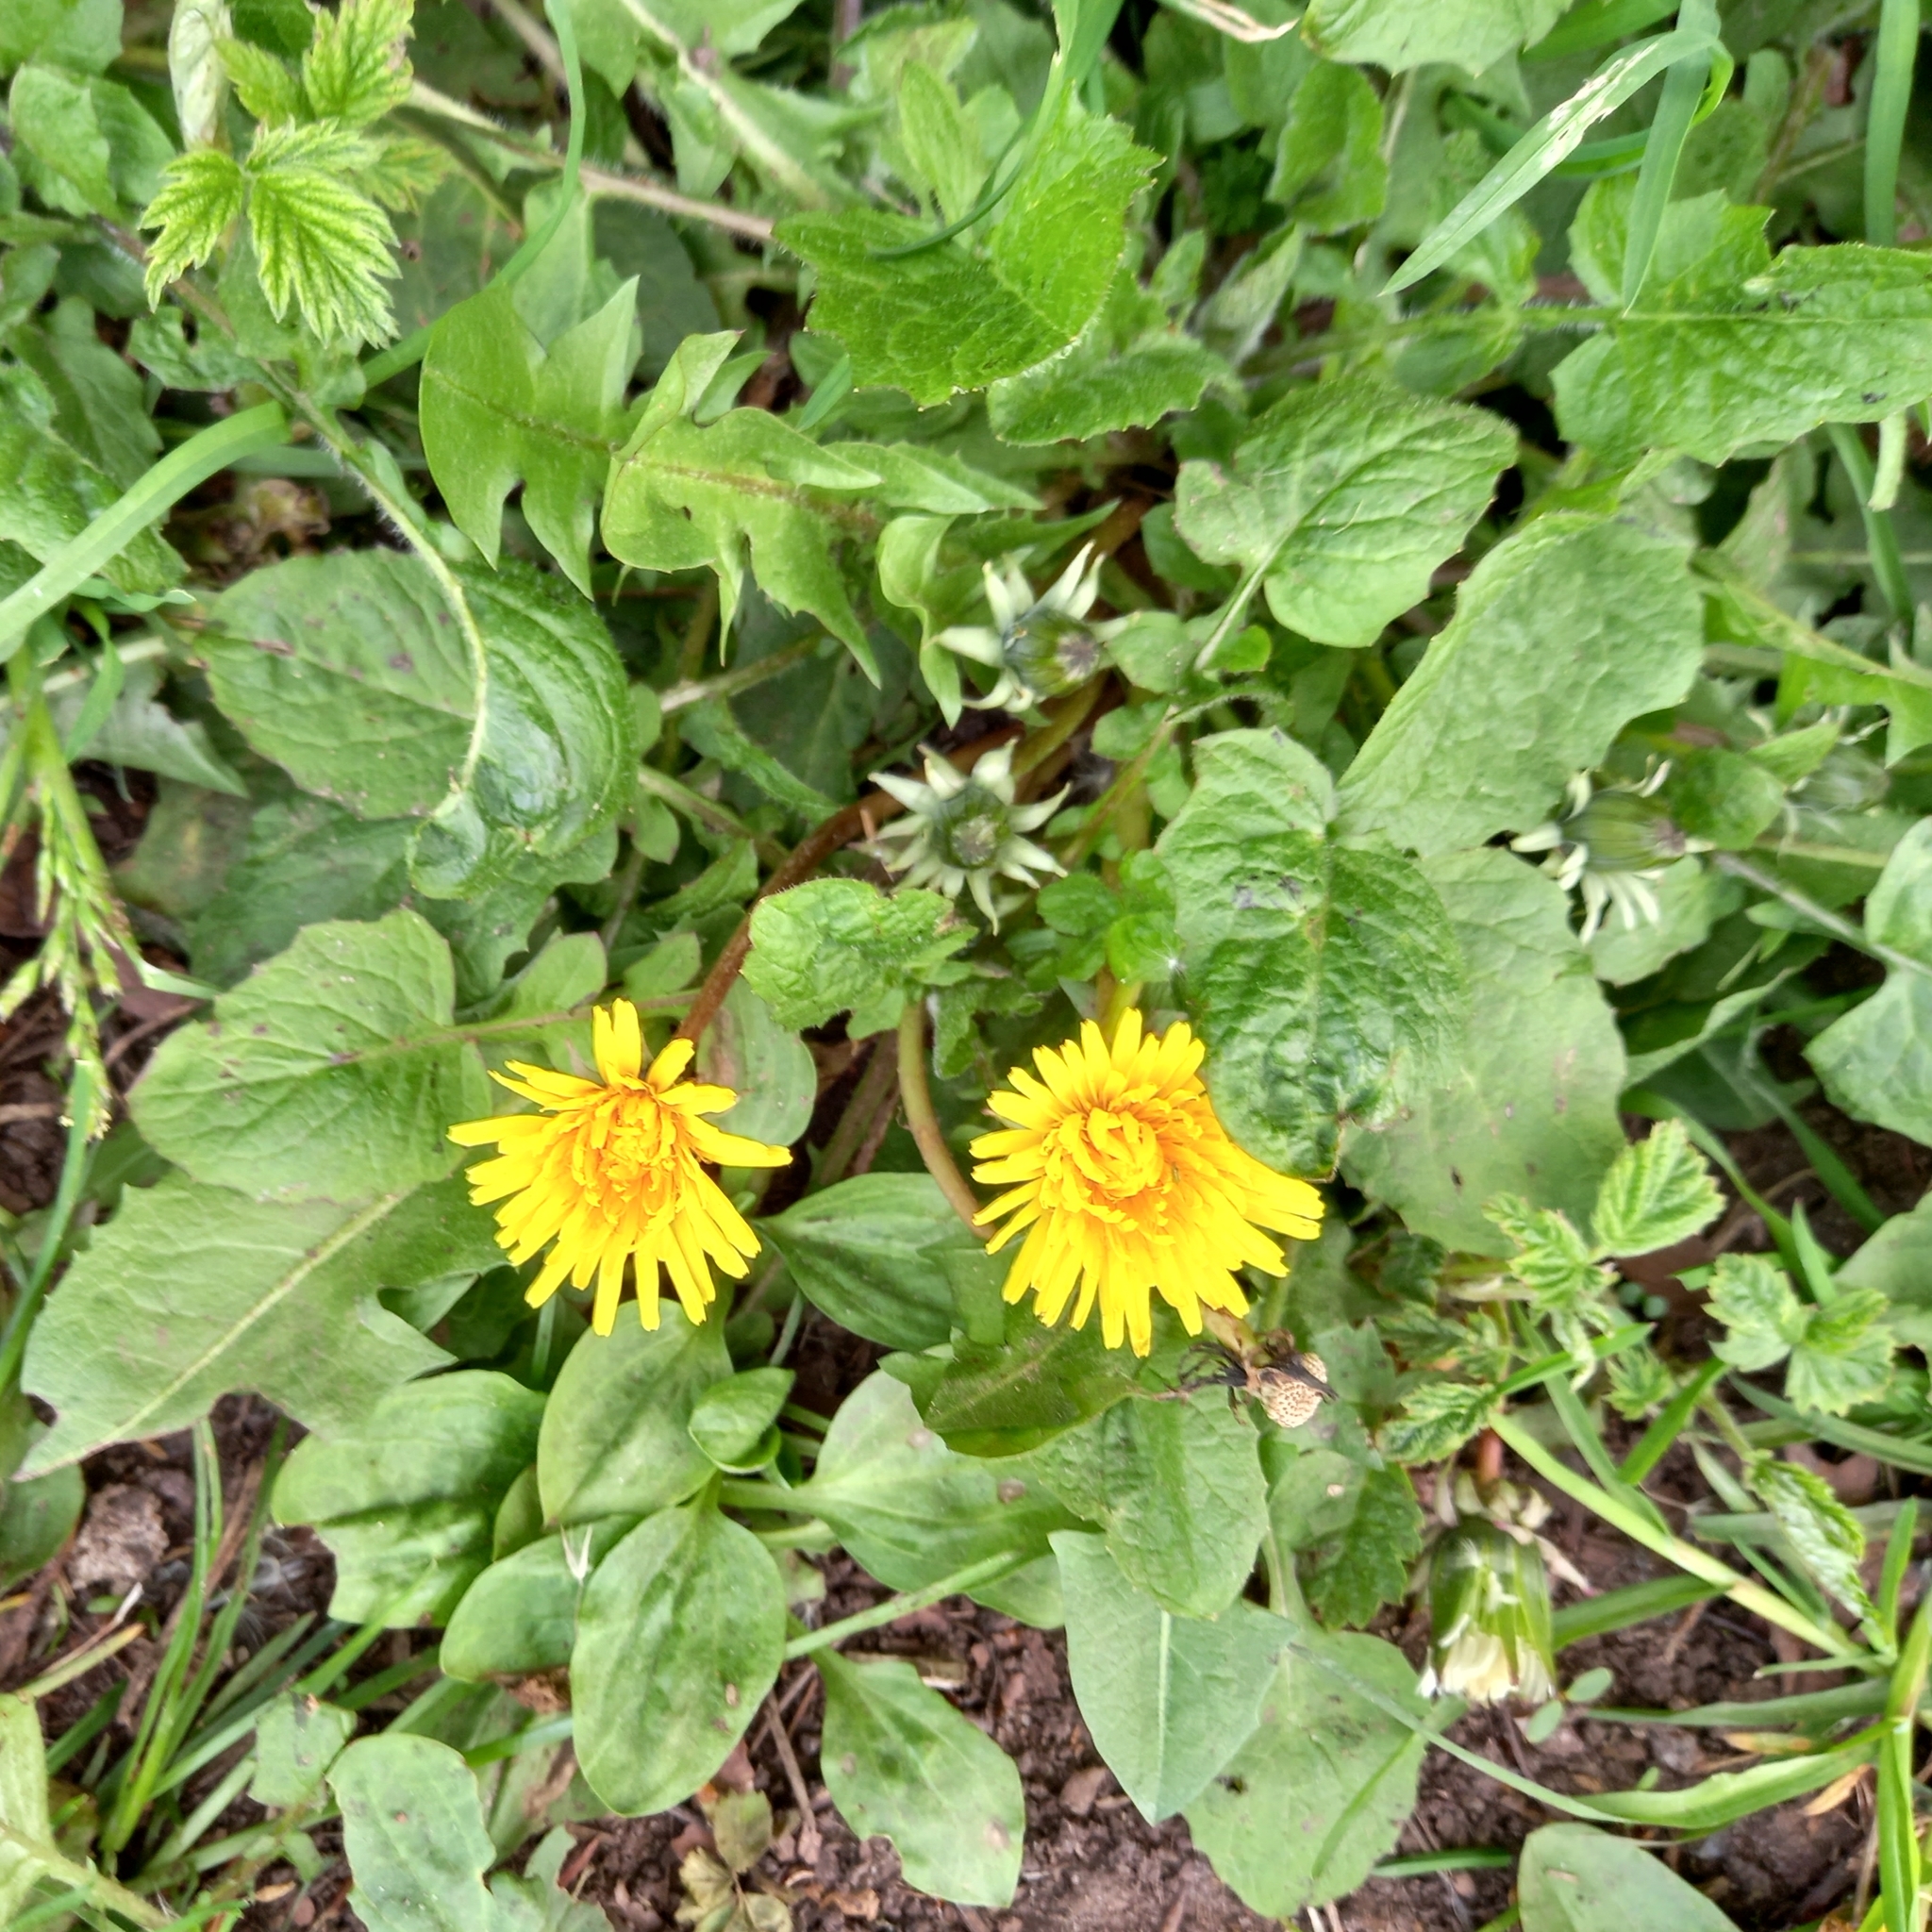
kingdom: Plantae
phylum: Tracheophyta
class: Magnoliopsida
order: Asterales
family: Asteraceae
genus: Taraxacum
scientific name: Taraxacum officinale
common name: Common dandelion
